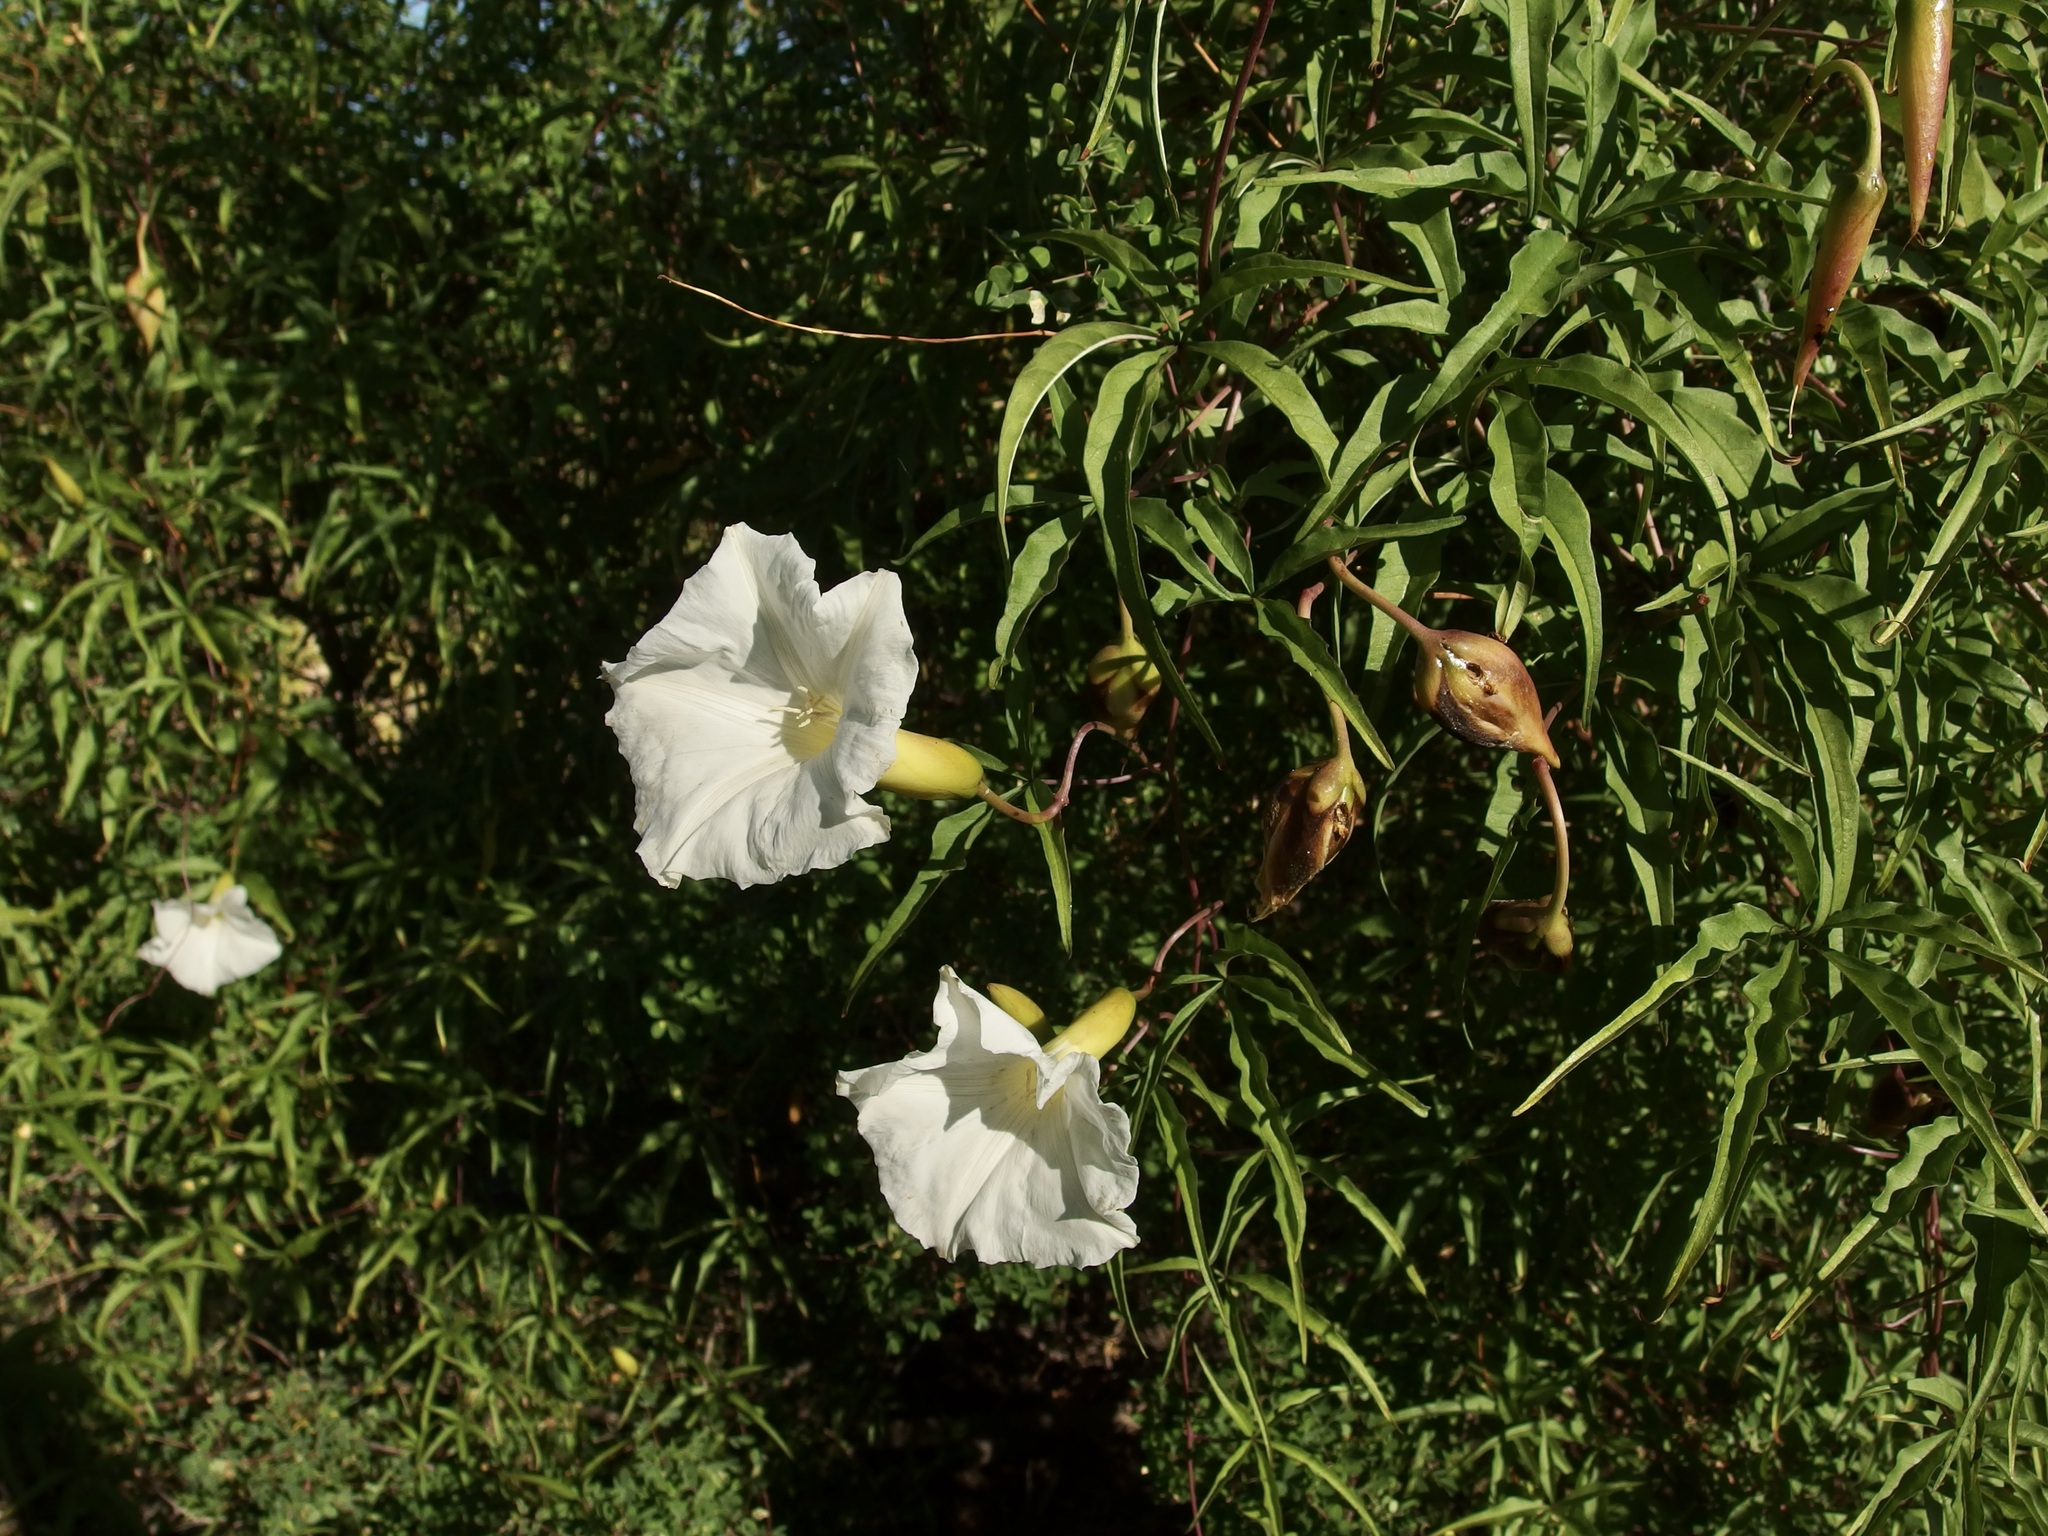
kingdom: Plantae
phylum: Tracheophyta
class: Magnoliopsida
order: Solanales
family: Convolvulaceae
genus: Distimake
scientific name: Distimake palmeri
